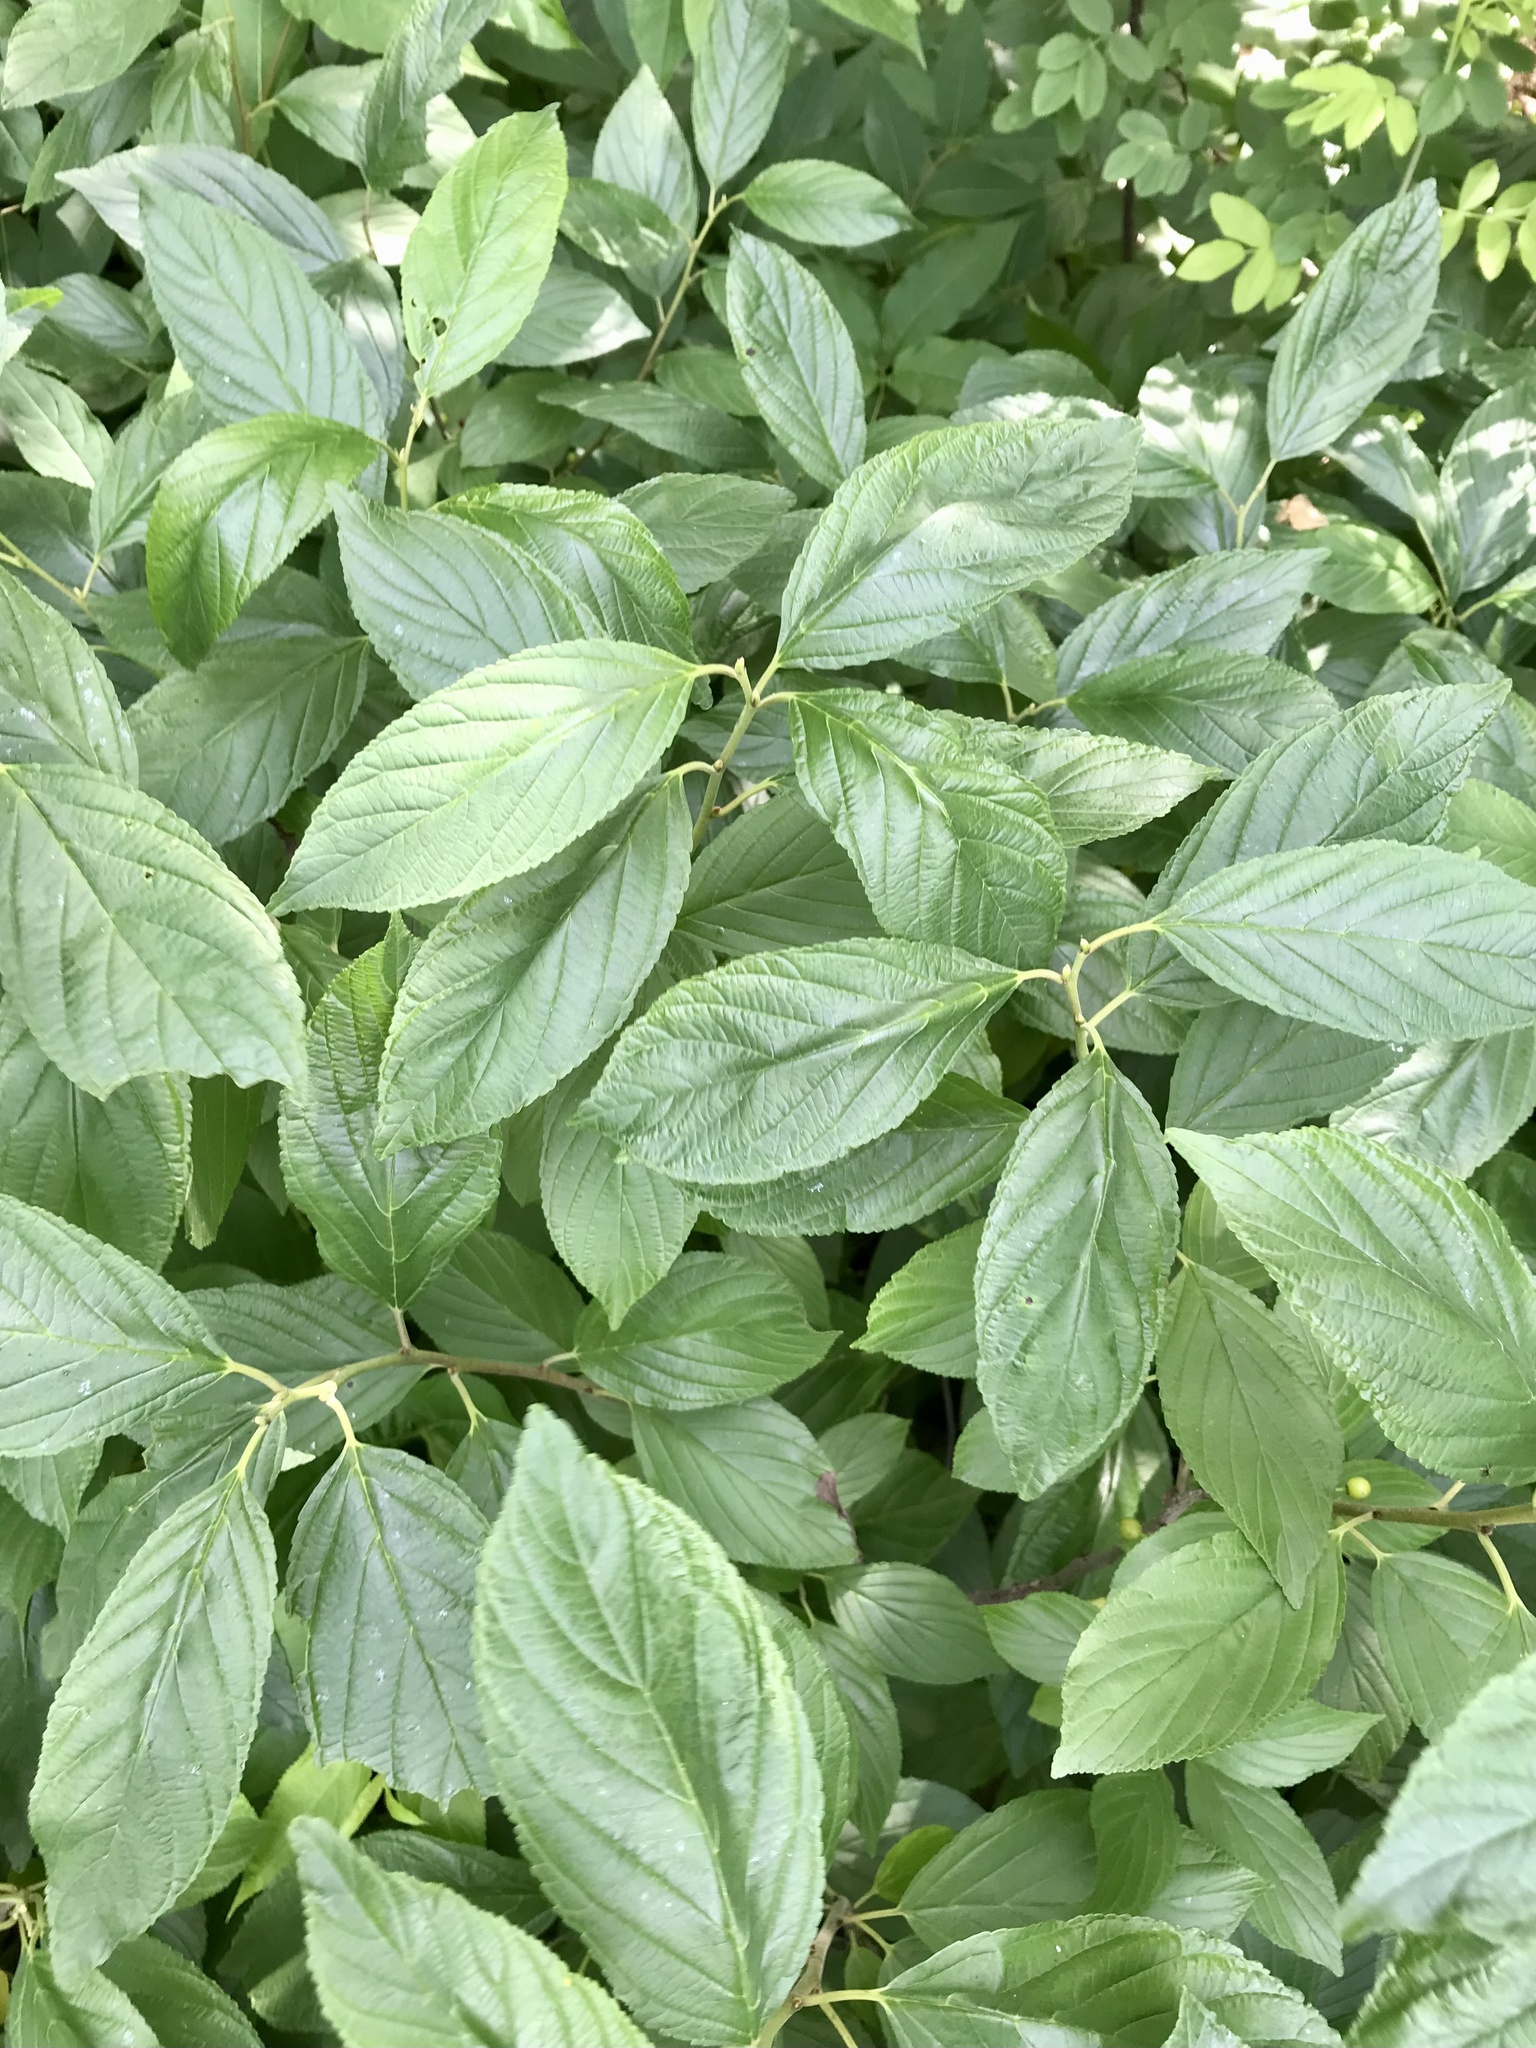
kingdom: Plantae
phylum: Tracheophyta
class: Magnoliopsida
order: Rosales
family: Rhamnaceae
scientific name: Rhamnaceae
